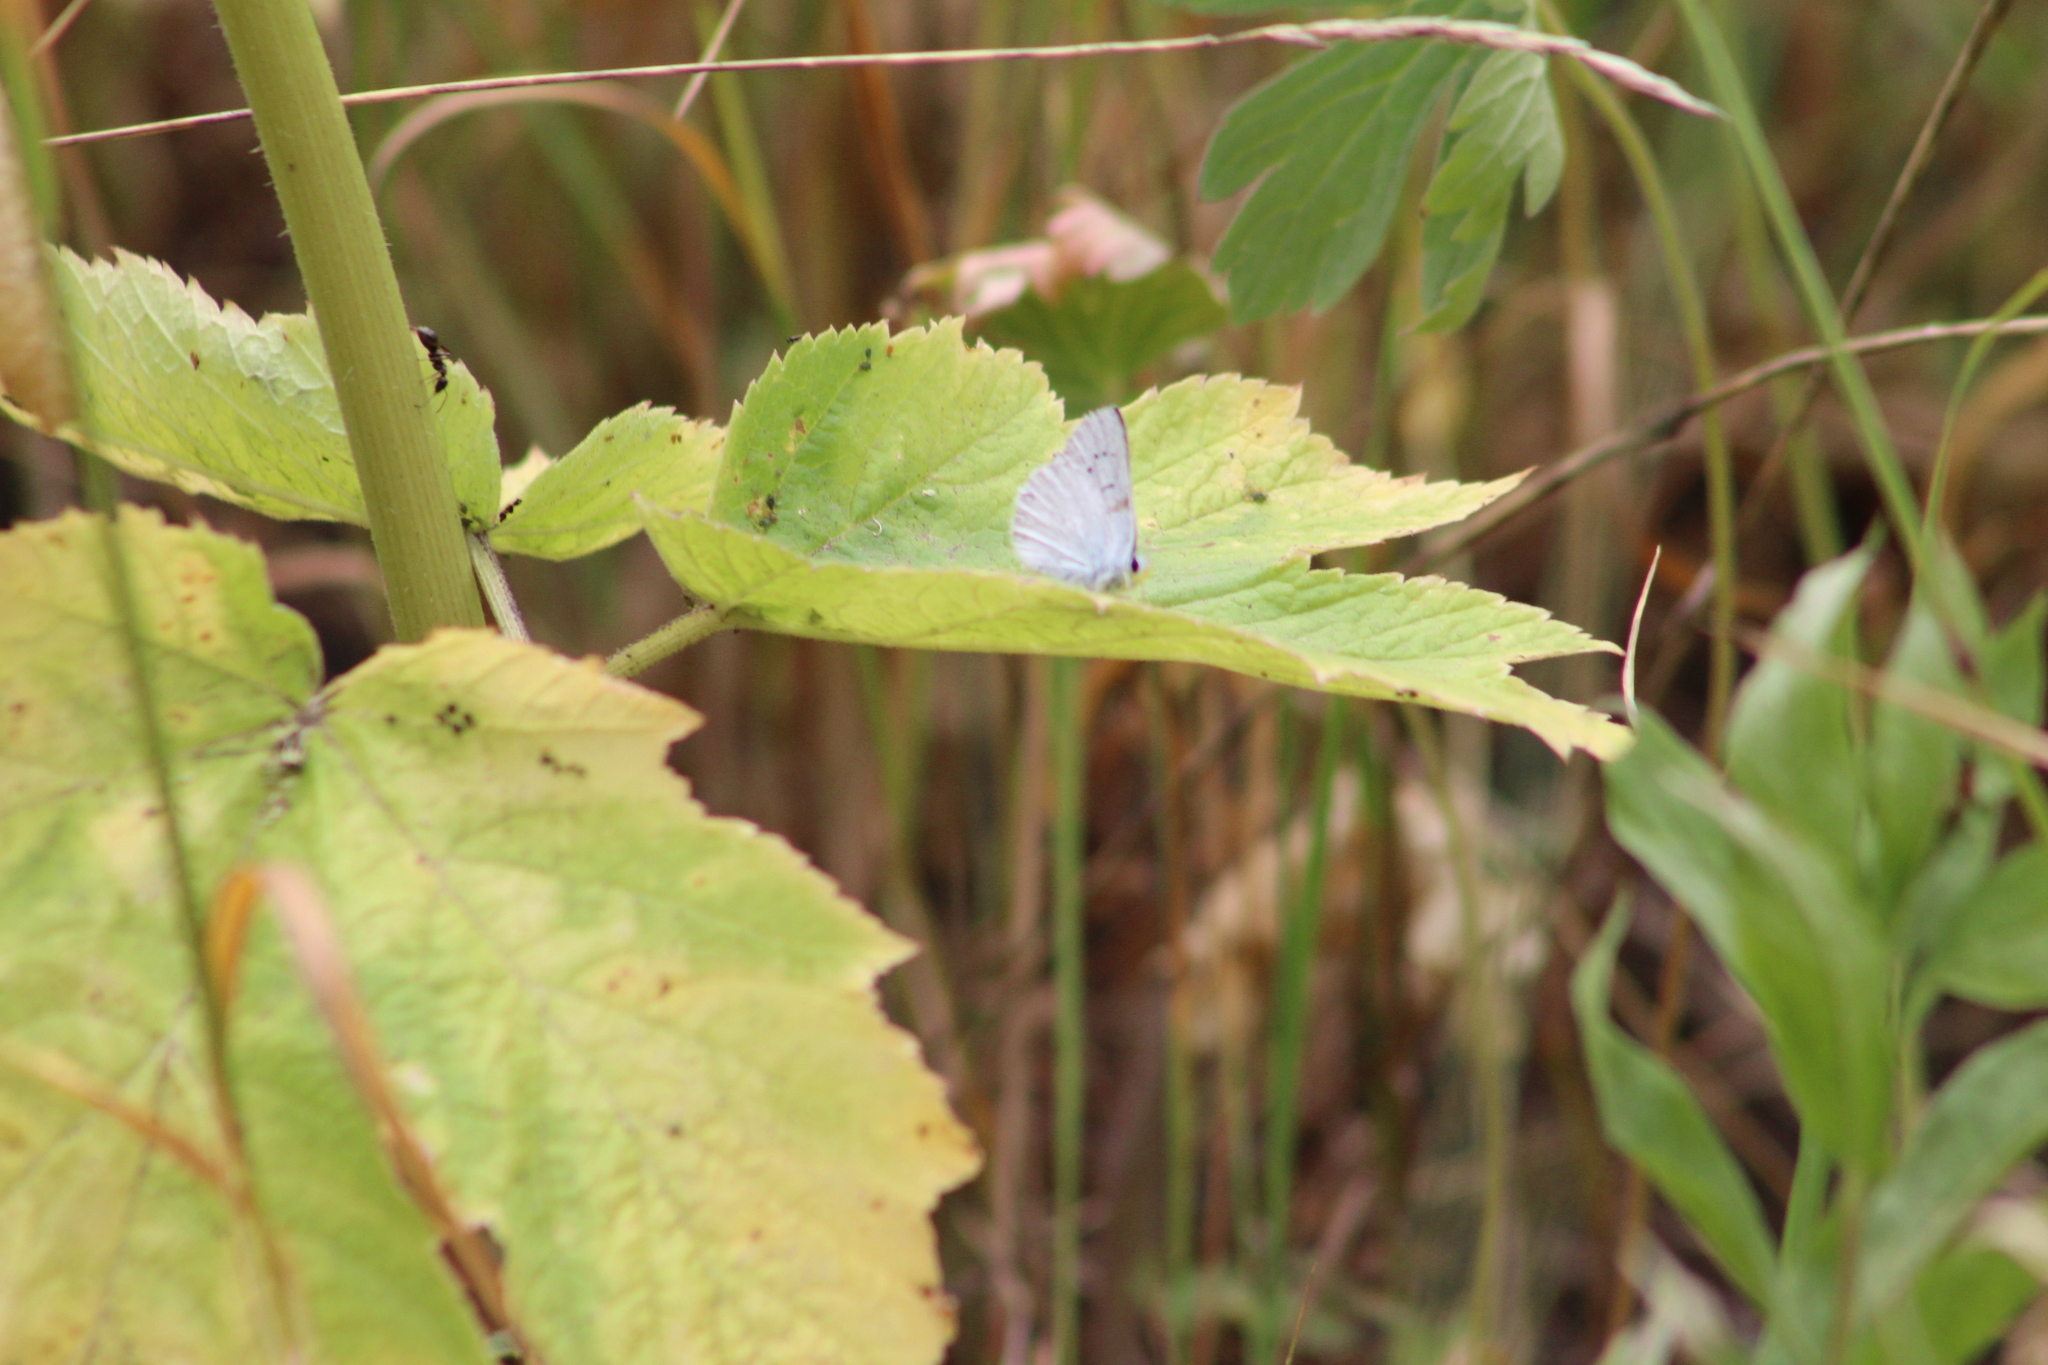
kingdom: Animalia
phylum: Arthropoda
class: Insecta
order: Lepidoptera
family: Lycaenidae
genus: Icaricia
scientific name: Icaricia icarioides
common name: Boisduval's blue
